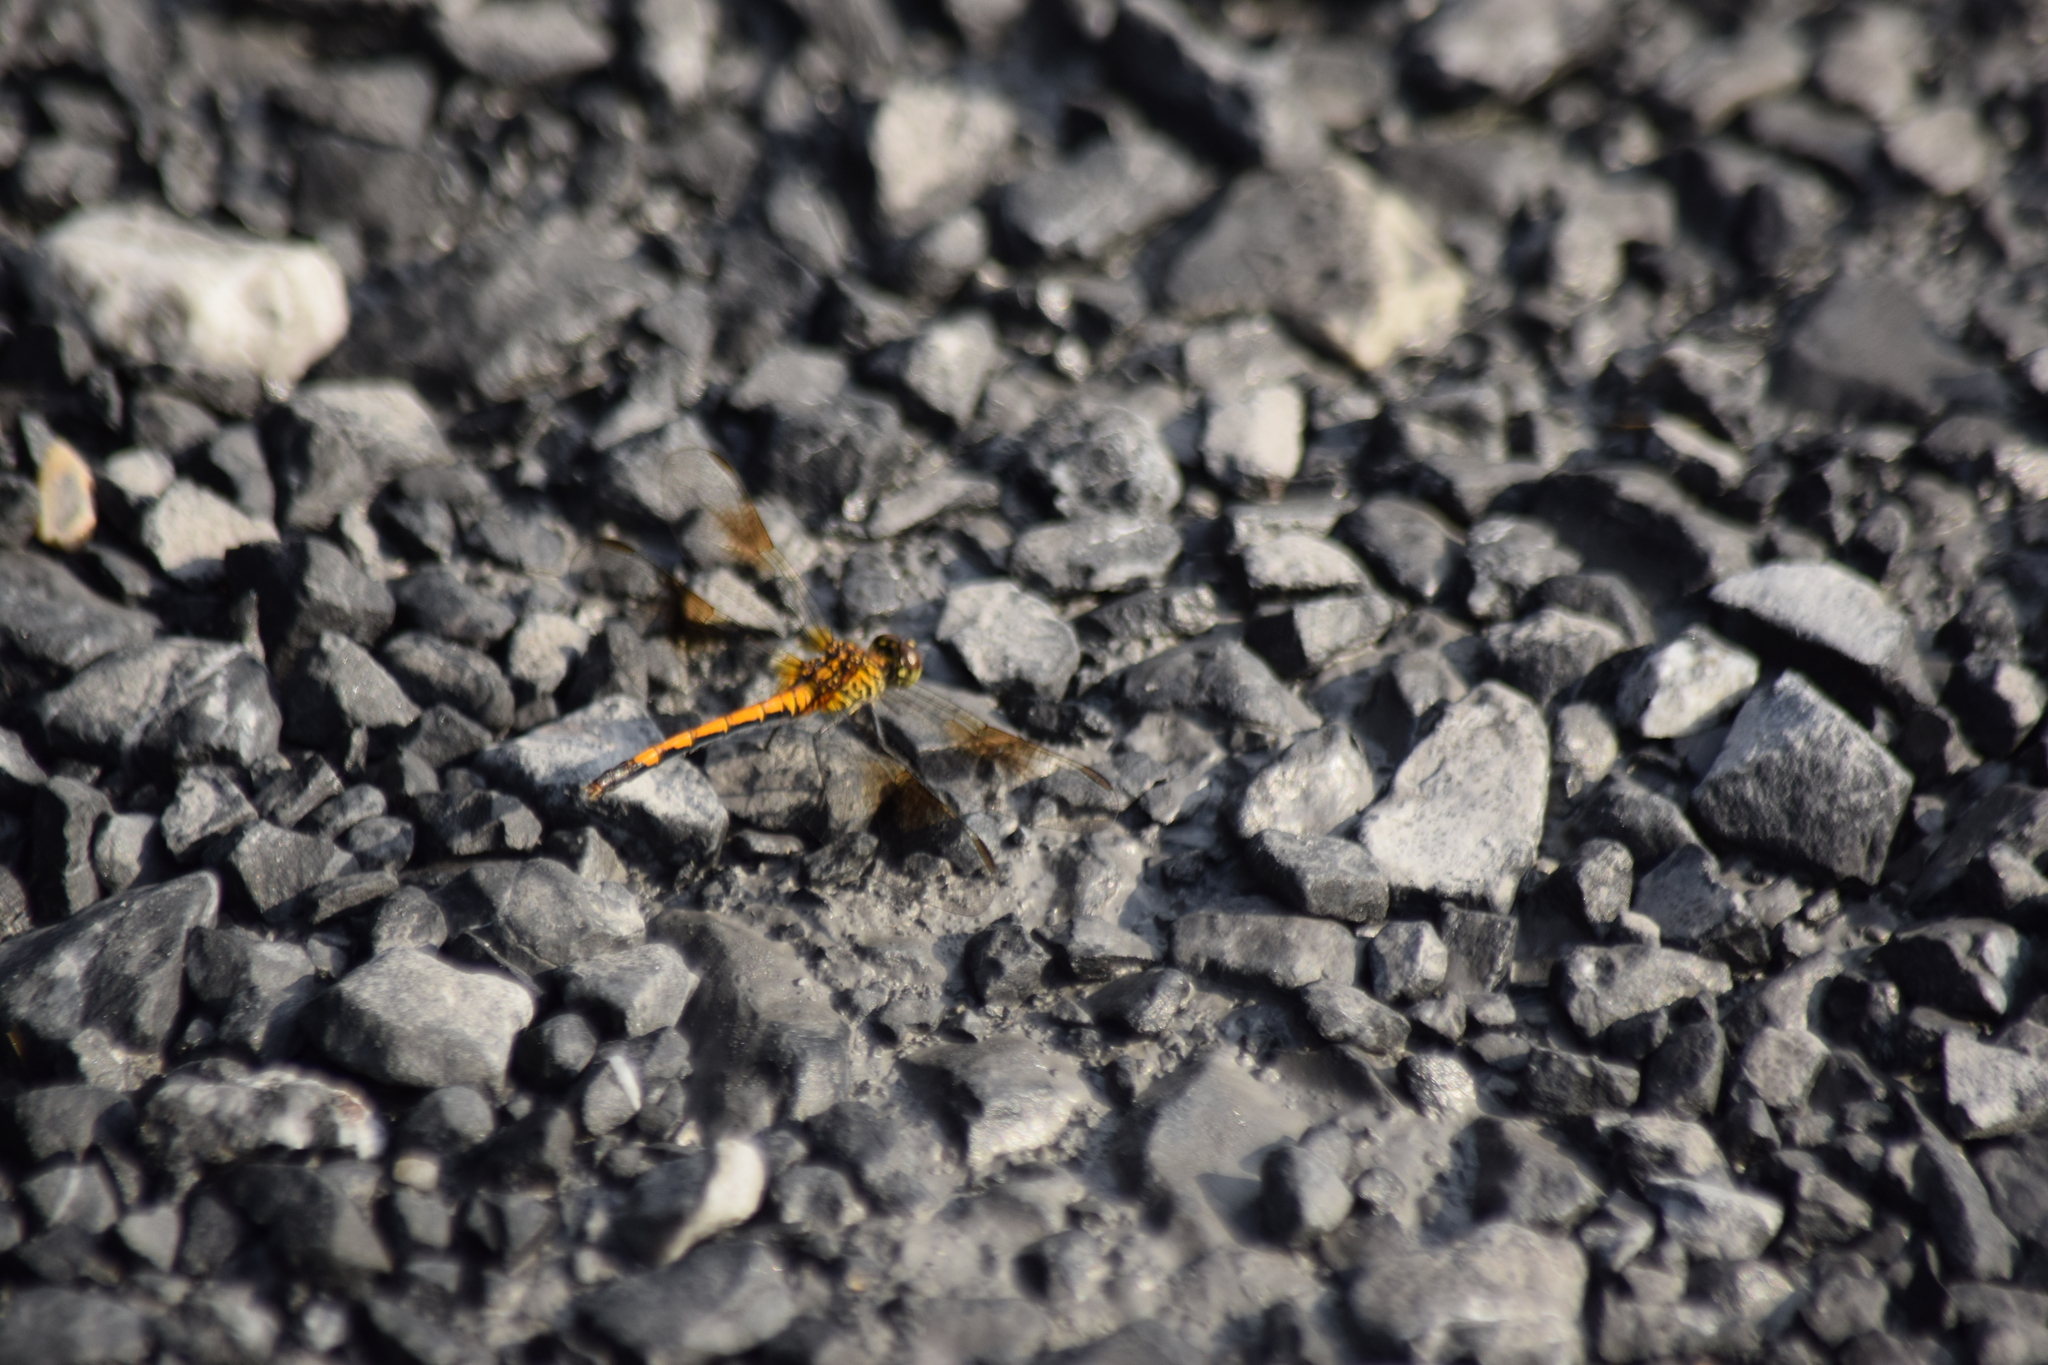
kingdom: Animalia
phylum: Arthropoda
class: Insecta
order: Odonata
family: Libellulidae
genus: Erythrodiplax
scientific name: Erythrodiplax berenice
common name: Seaside dragonlet
